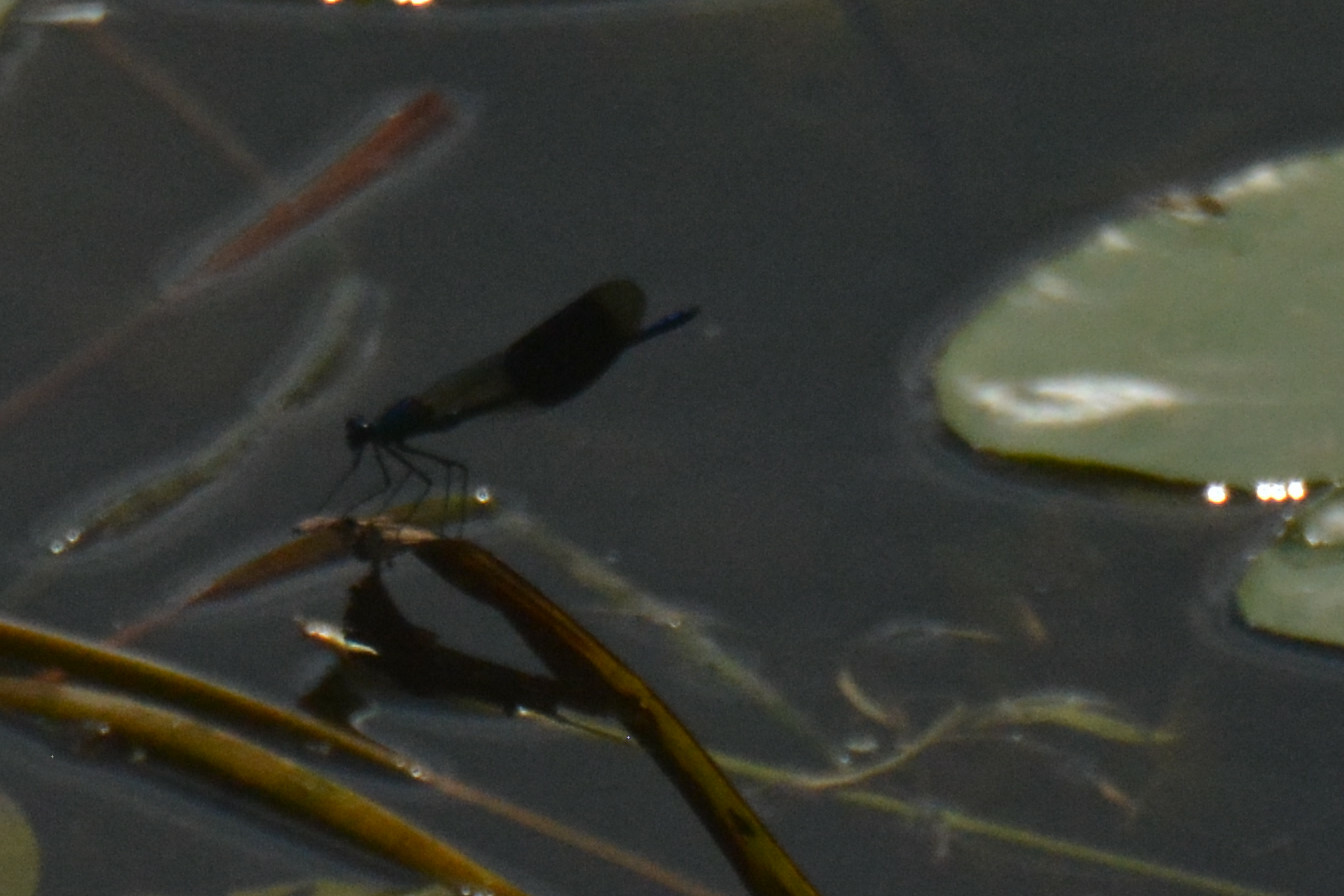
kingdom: Animalia
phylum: Arthropoda
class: Insecta
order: Odonata
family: Calopterygidae
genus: Calopteryx
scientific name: Calopteryx splendens
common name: Banded demoiselle
